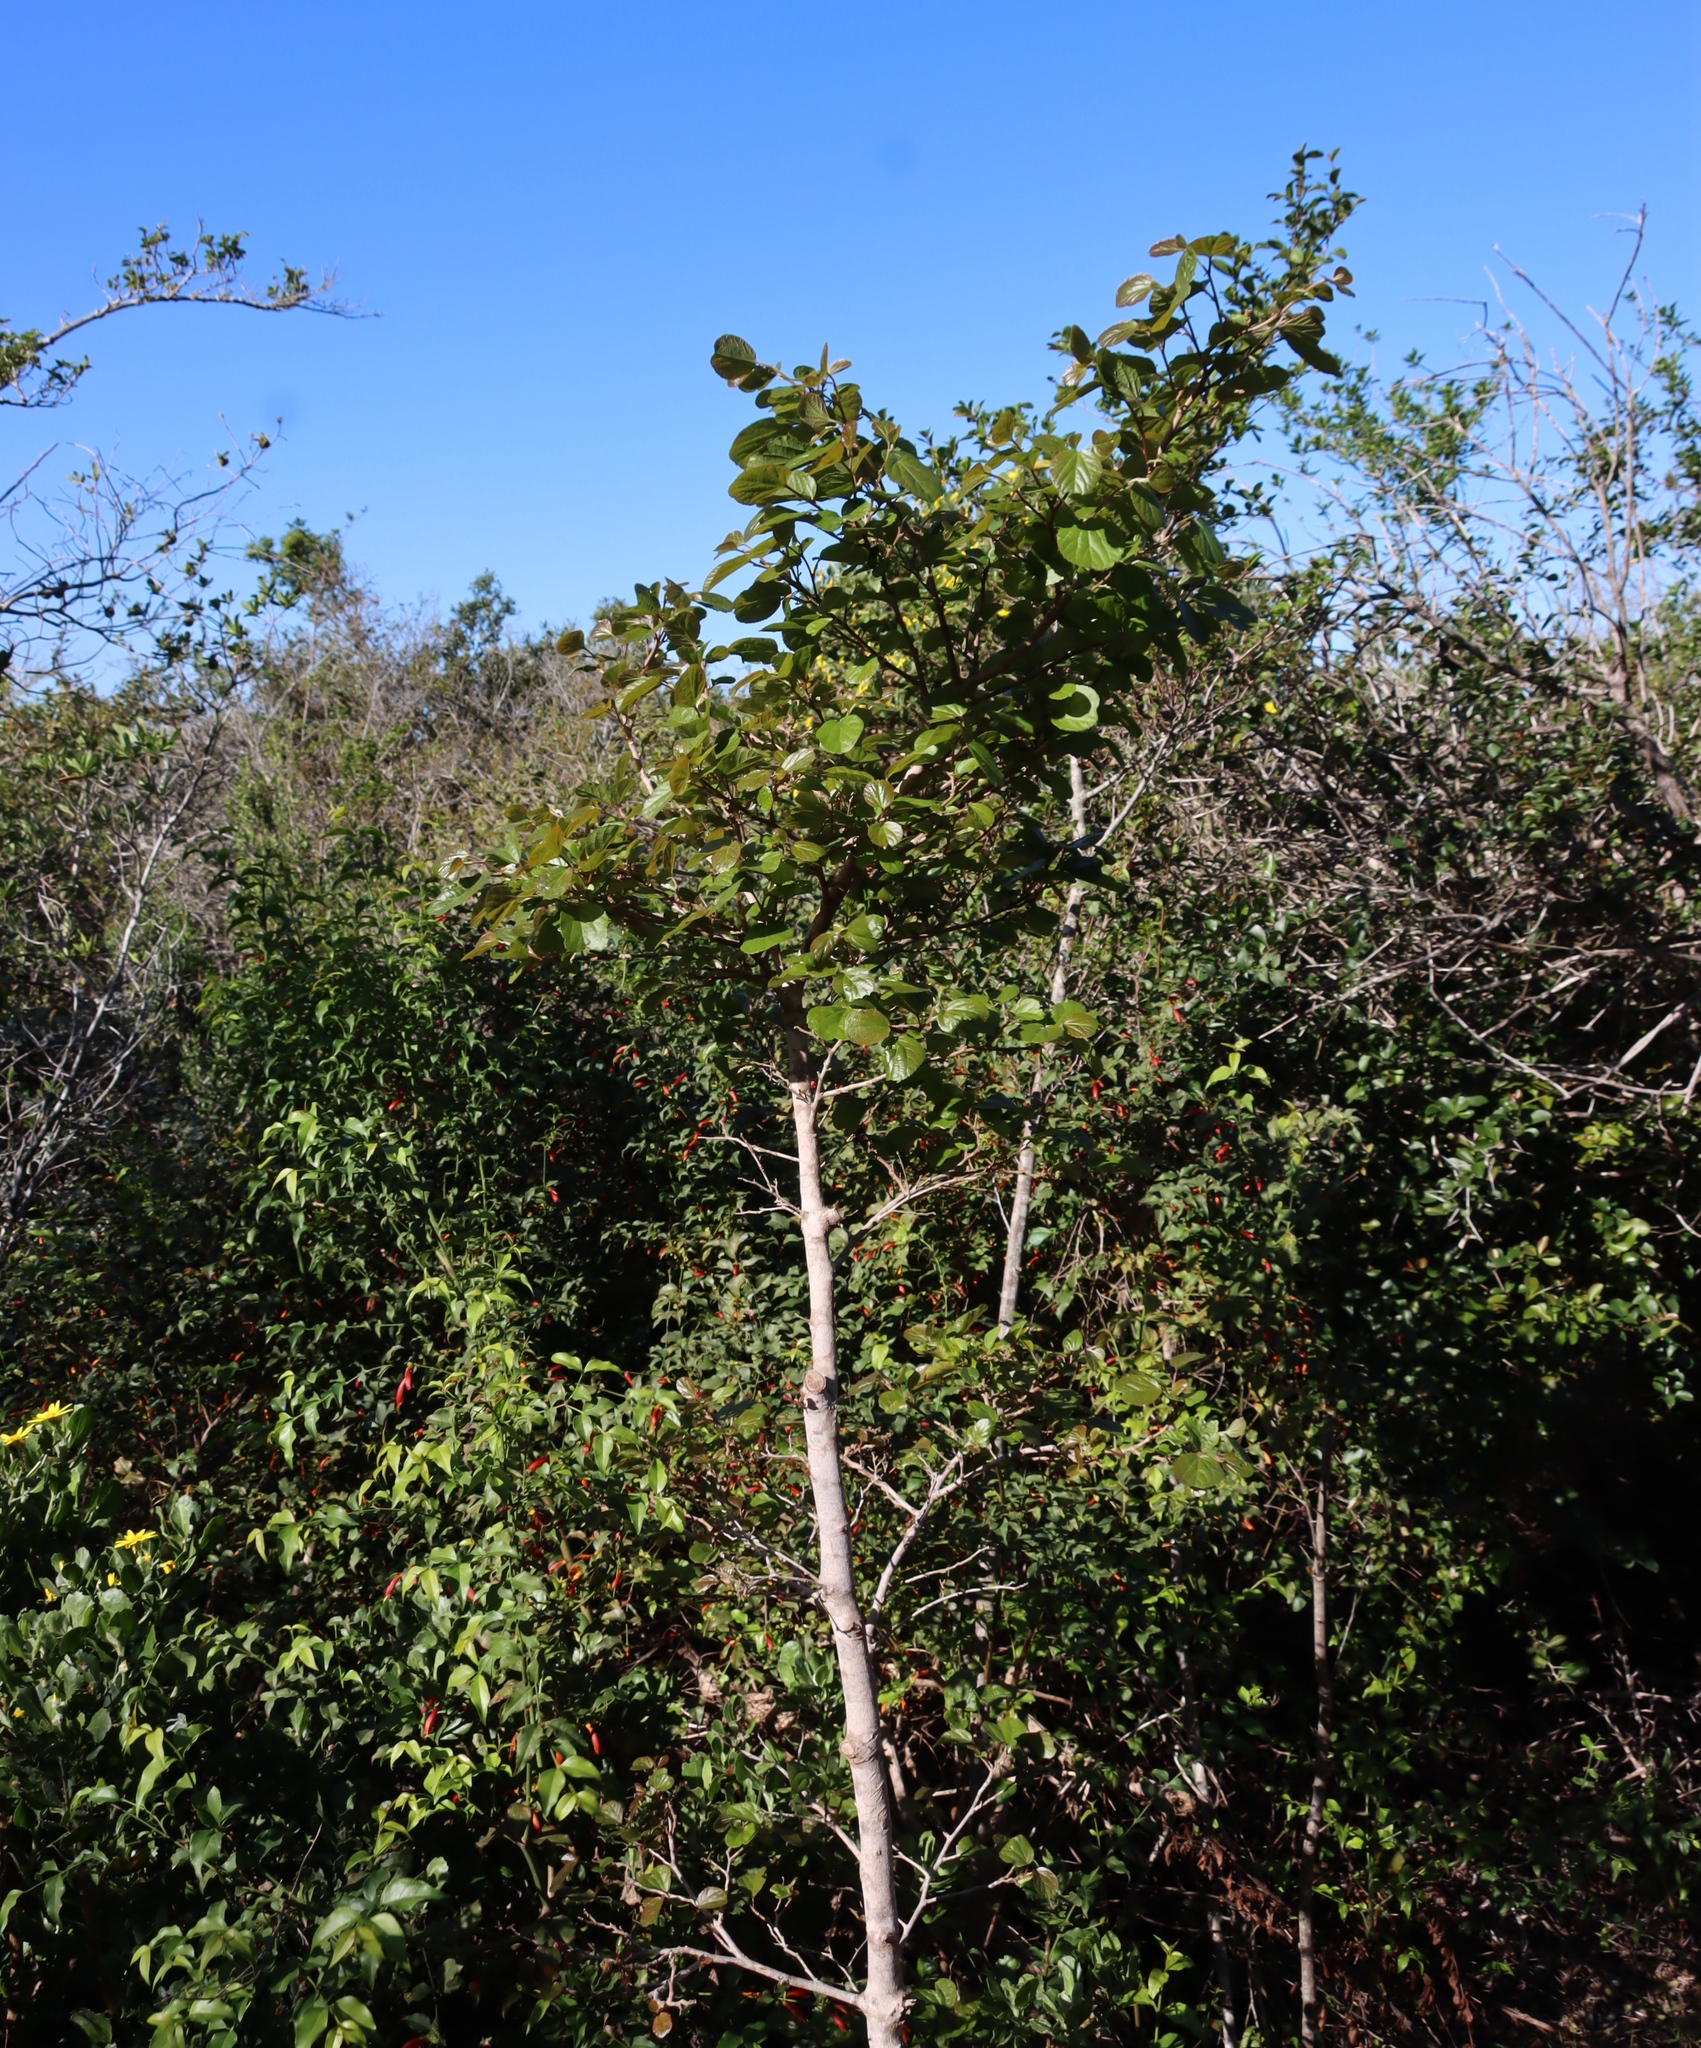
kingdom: Plantae
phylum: Tracheophyta
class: Magnoliopsida
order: Malpighiales
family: Salicaceae
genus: Trimeria
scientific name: Trimeria grandifolia
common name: Wild mulberry
